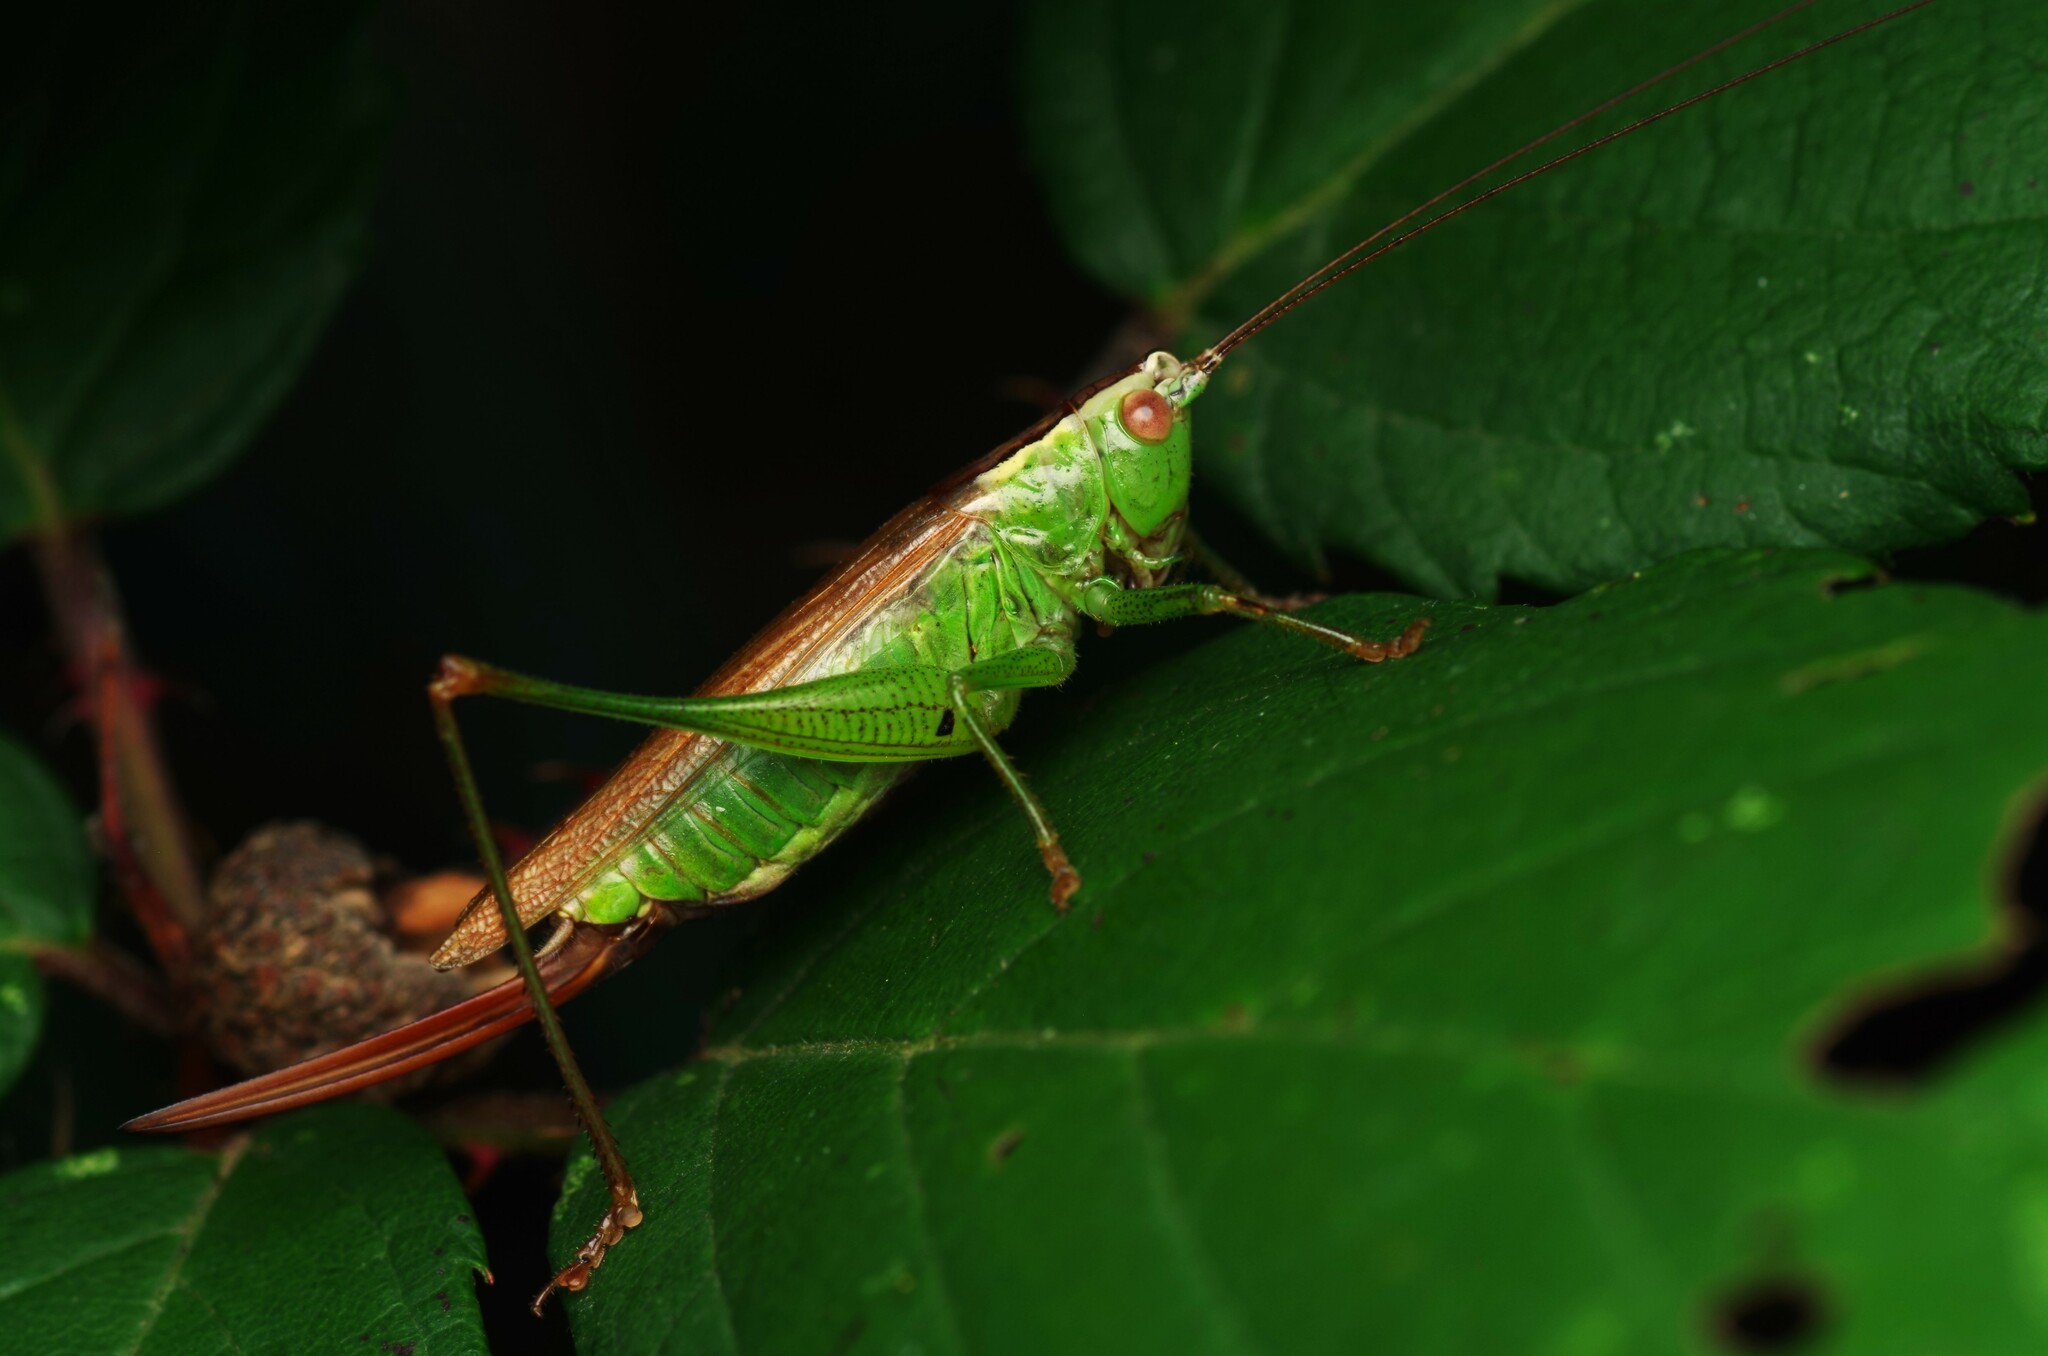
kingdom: Animalia
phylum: Arthropoda
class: Insecta
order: Orthoptera
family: Tettigoniidae
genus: Conocephalus
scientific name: Conocephalus fuscus
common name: Long-winged conehead
